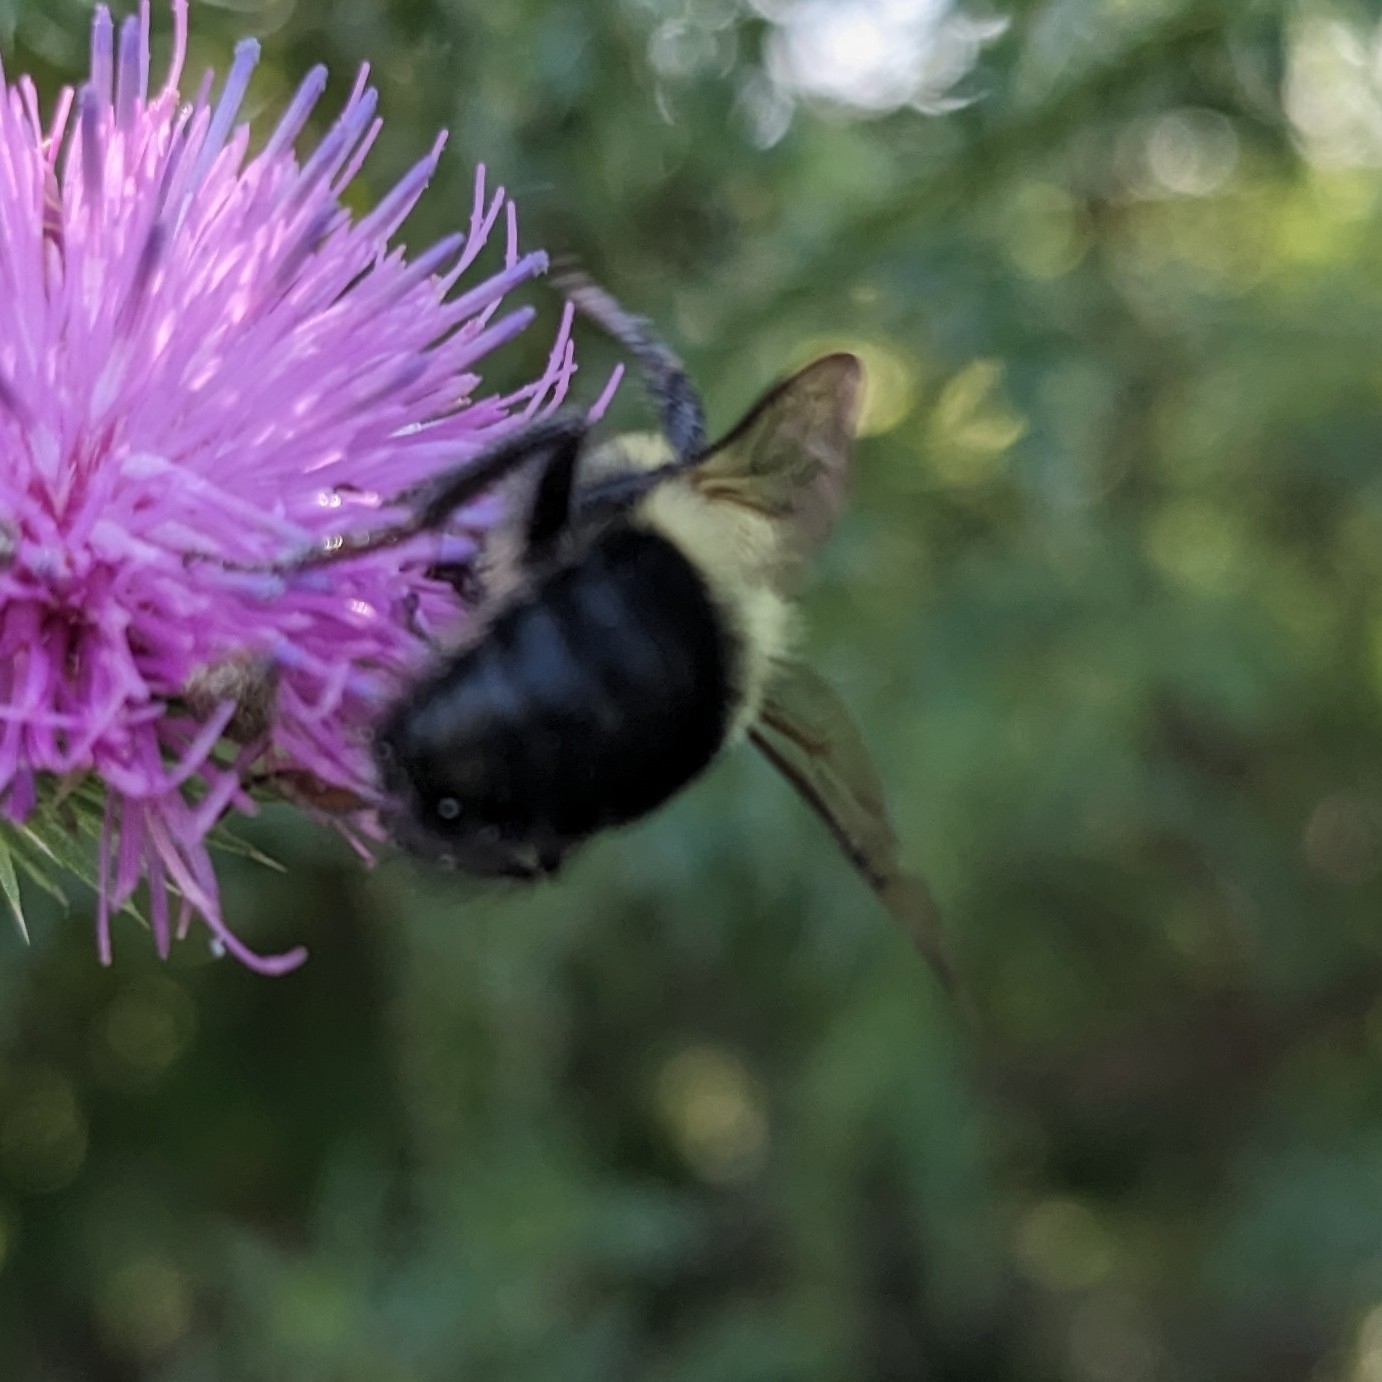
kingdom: Animalia
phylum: Arthropoda
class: Insecta
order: Hymenoptera
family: Apidae
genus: Bombus
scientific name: Bombus impatiens
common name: Common eastern bumble bee
